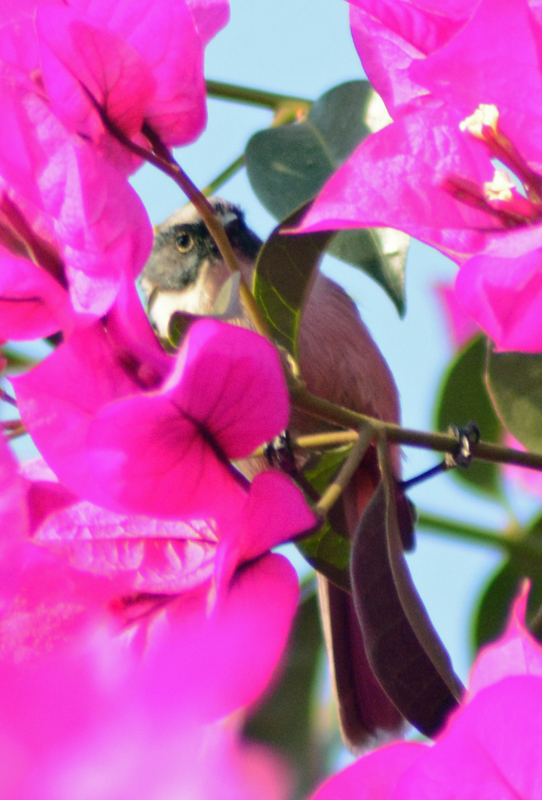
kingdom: Animalia
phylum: Chordata
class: Aves
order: Passeriformes
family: Aegithalidae
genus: Psaltriparus
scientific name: Psaltriparus minimus
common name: American bushtit
